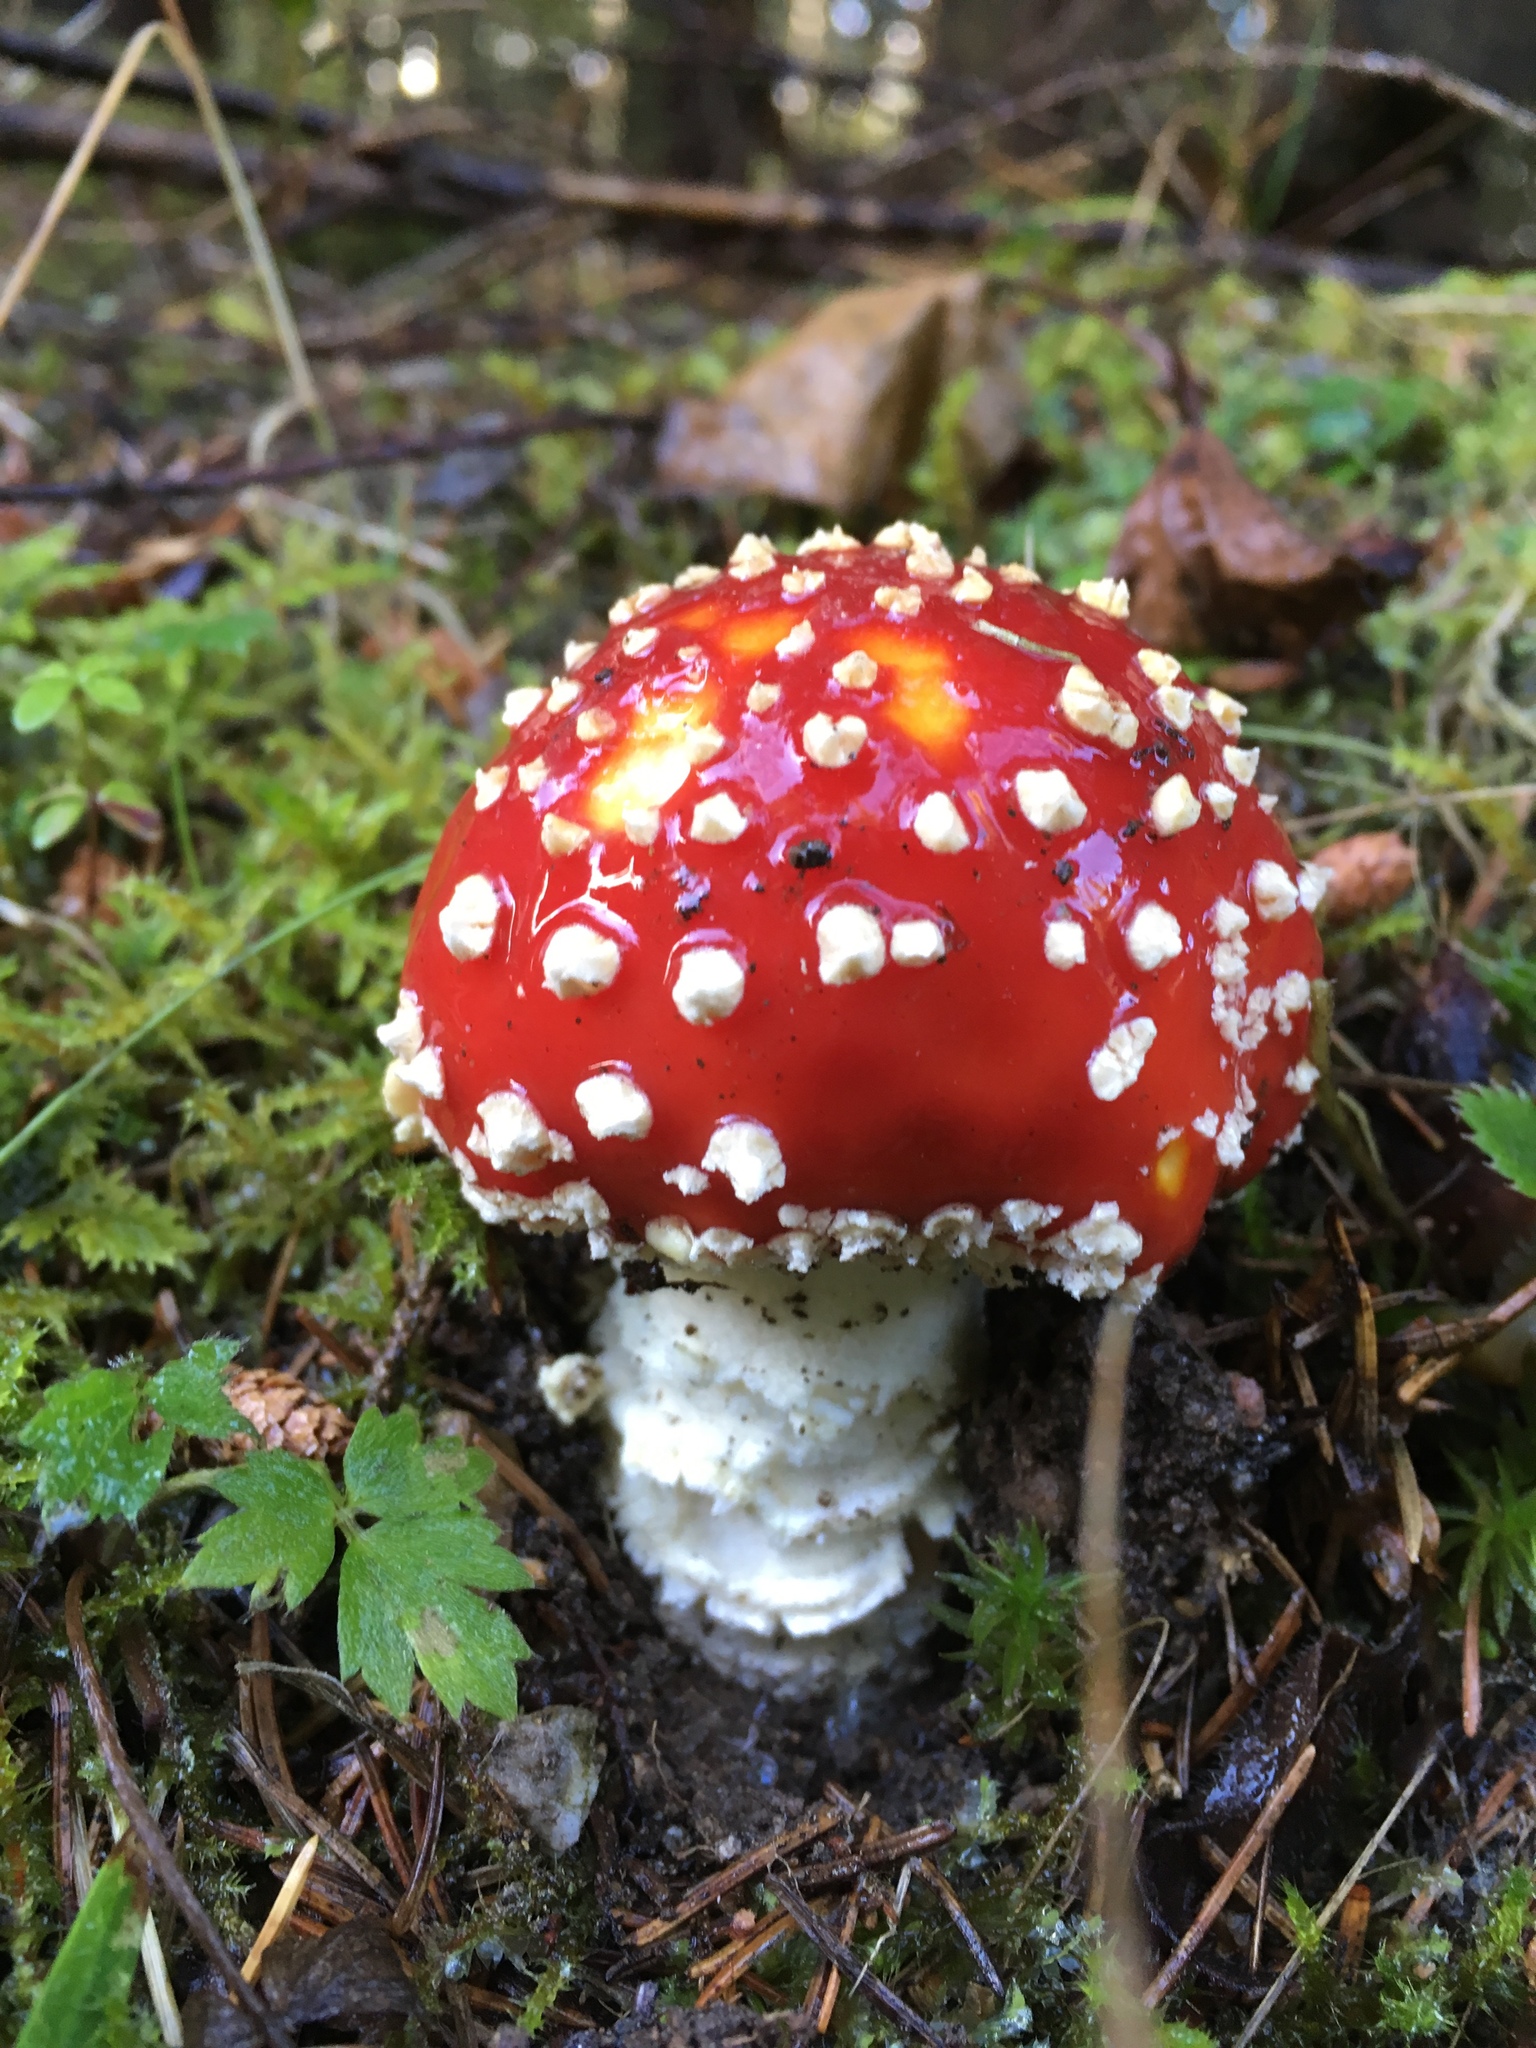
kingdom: Fungi
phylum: Basidiomycota
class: Agaricomycetes
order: Agaricales
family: Amanitaceae
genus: Amanita
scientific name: Amanita muscaria
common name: Fly agaric
